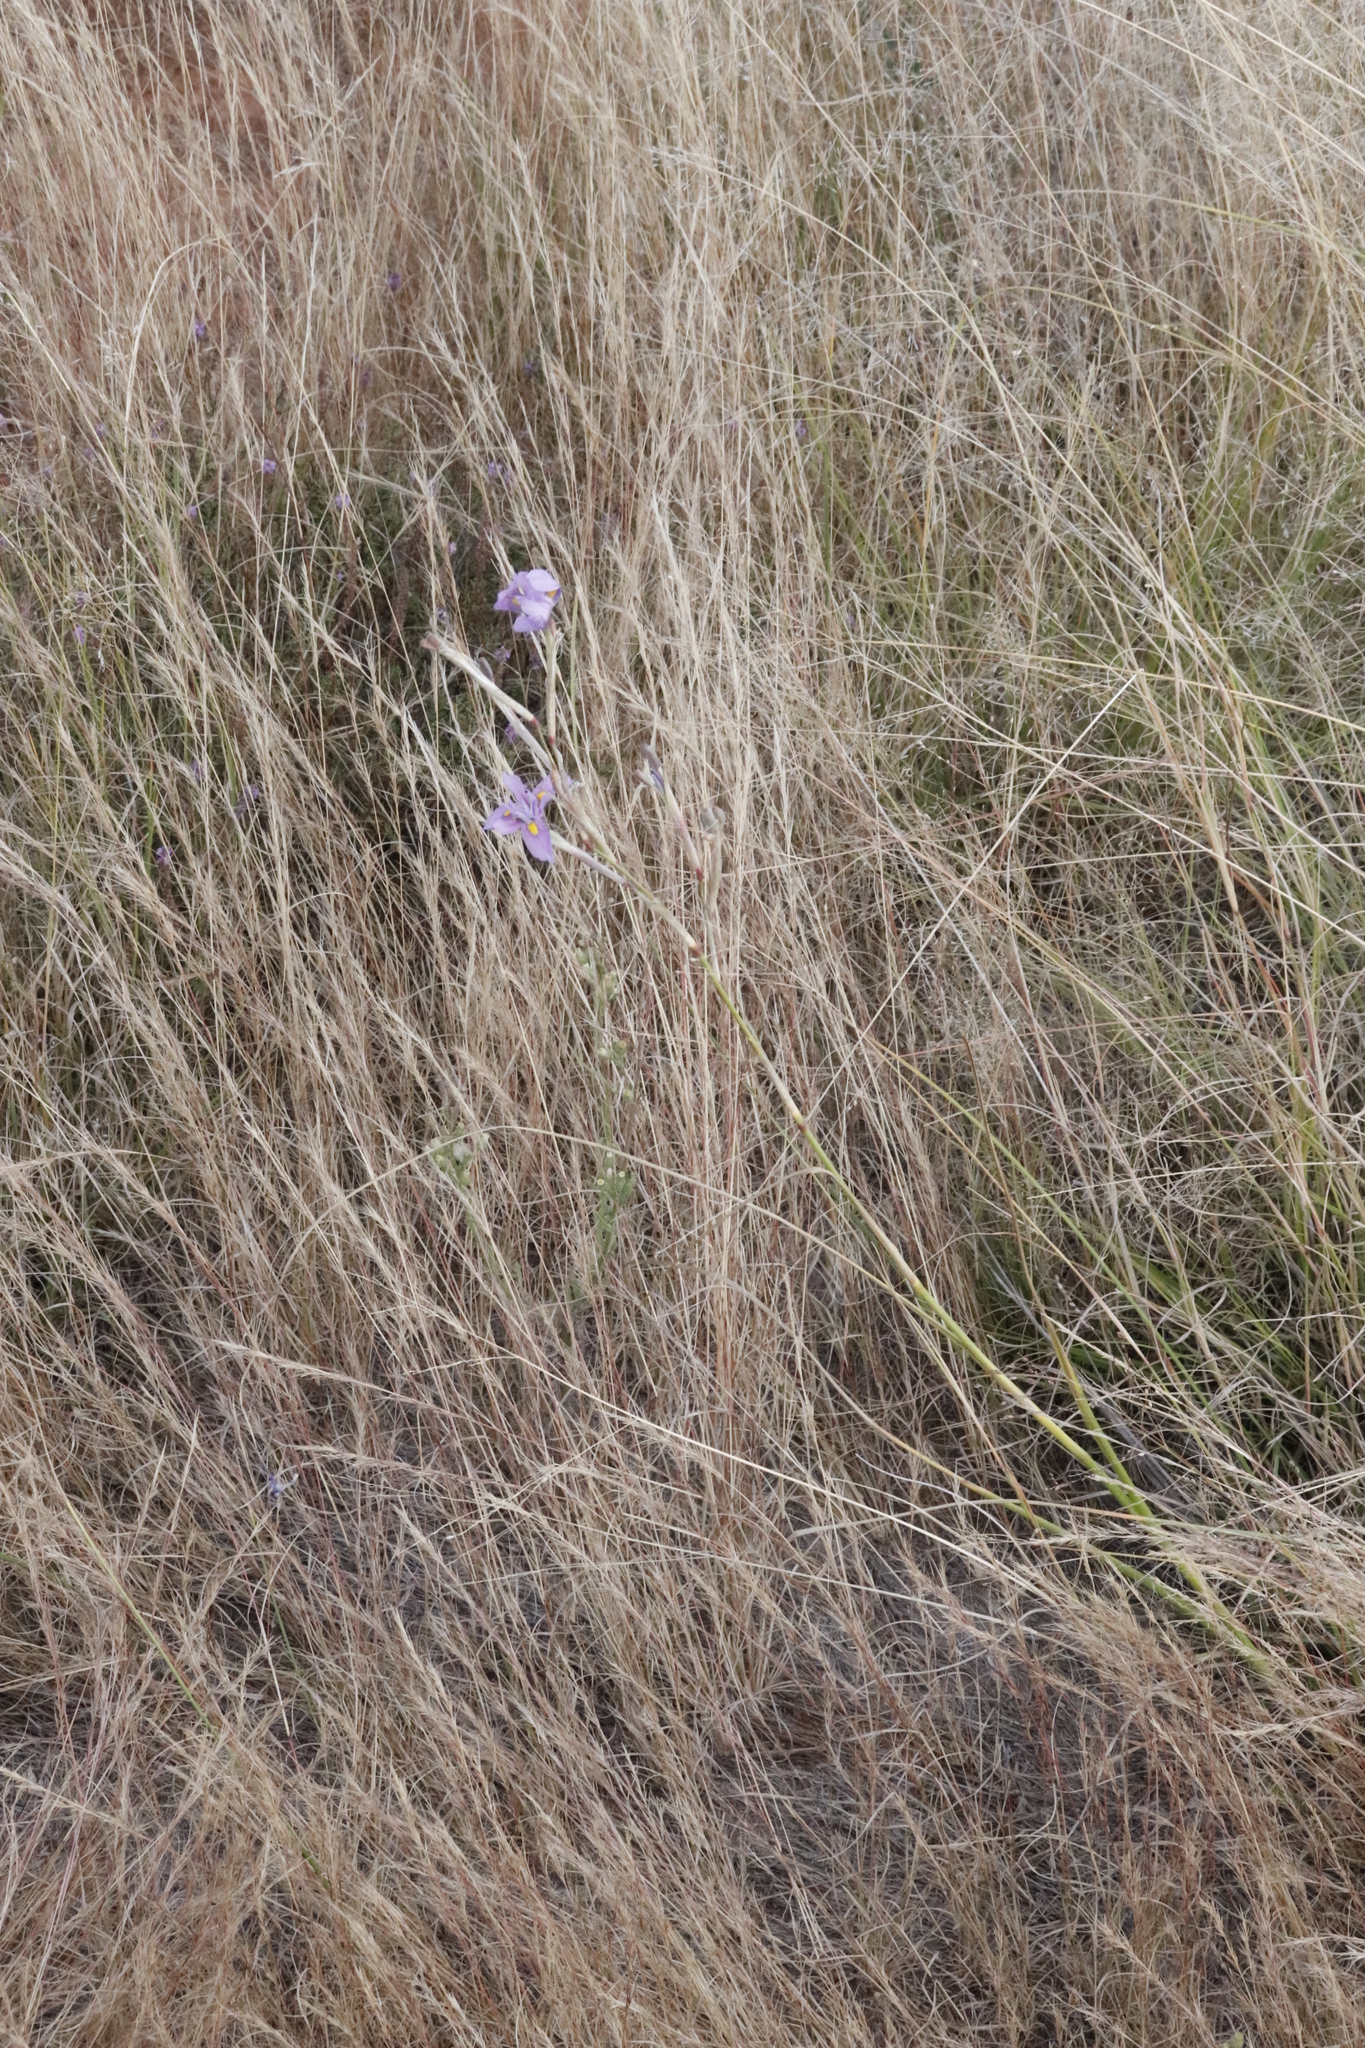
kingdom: Plantae
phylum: Tracheophyta
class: Liliopsida
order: Poales
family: Poaceae
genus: Aristida
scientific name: Aristida adscensionis
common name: Sixweeks threeawn
